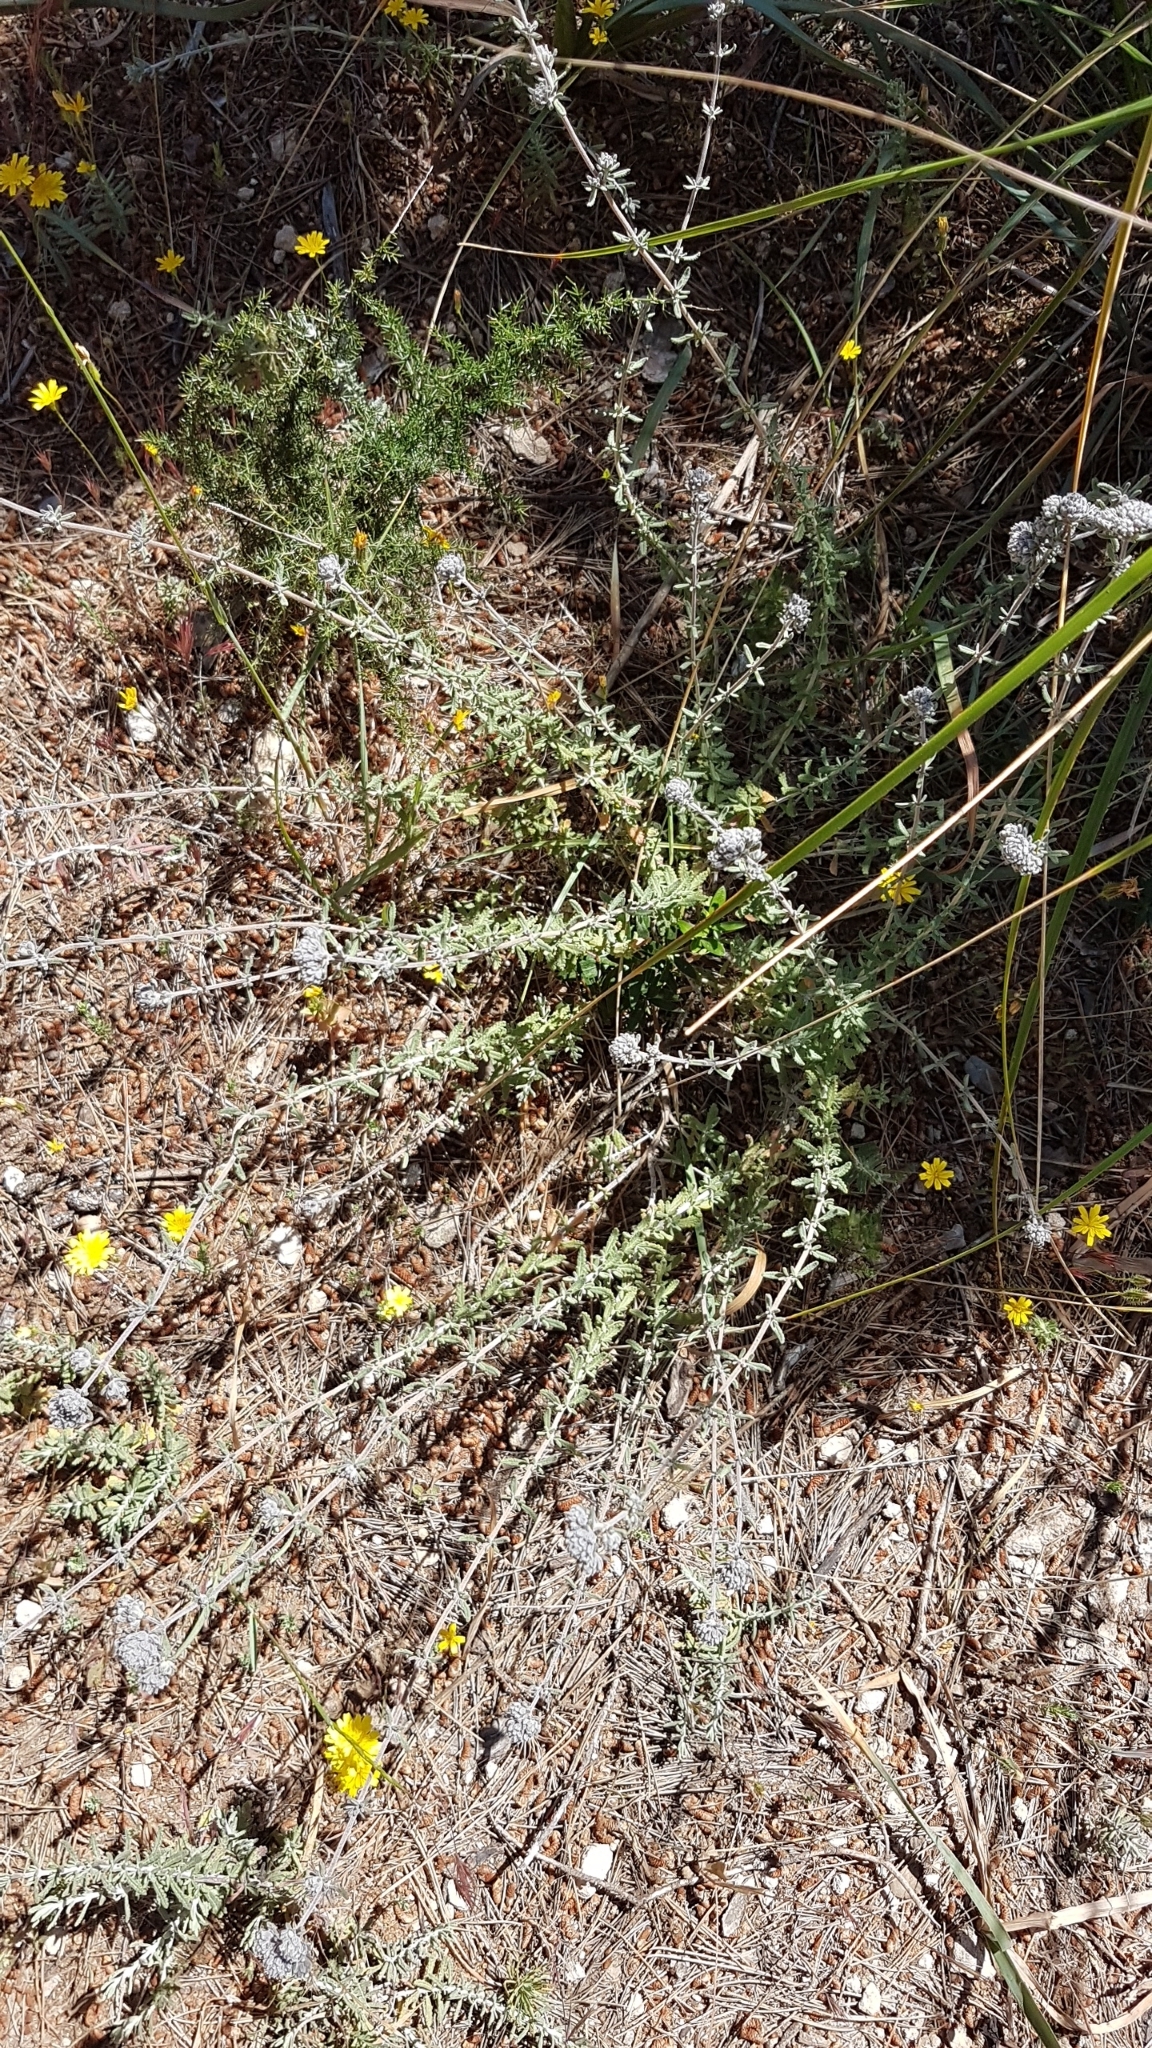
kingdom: Plantae
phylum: Tracheophyta
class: Magnoliopsida
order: Lamiales
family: Lamiaceae
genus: Teucrium
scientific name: Teucrium capitatum
